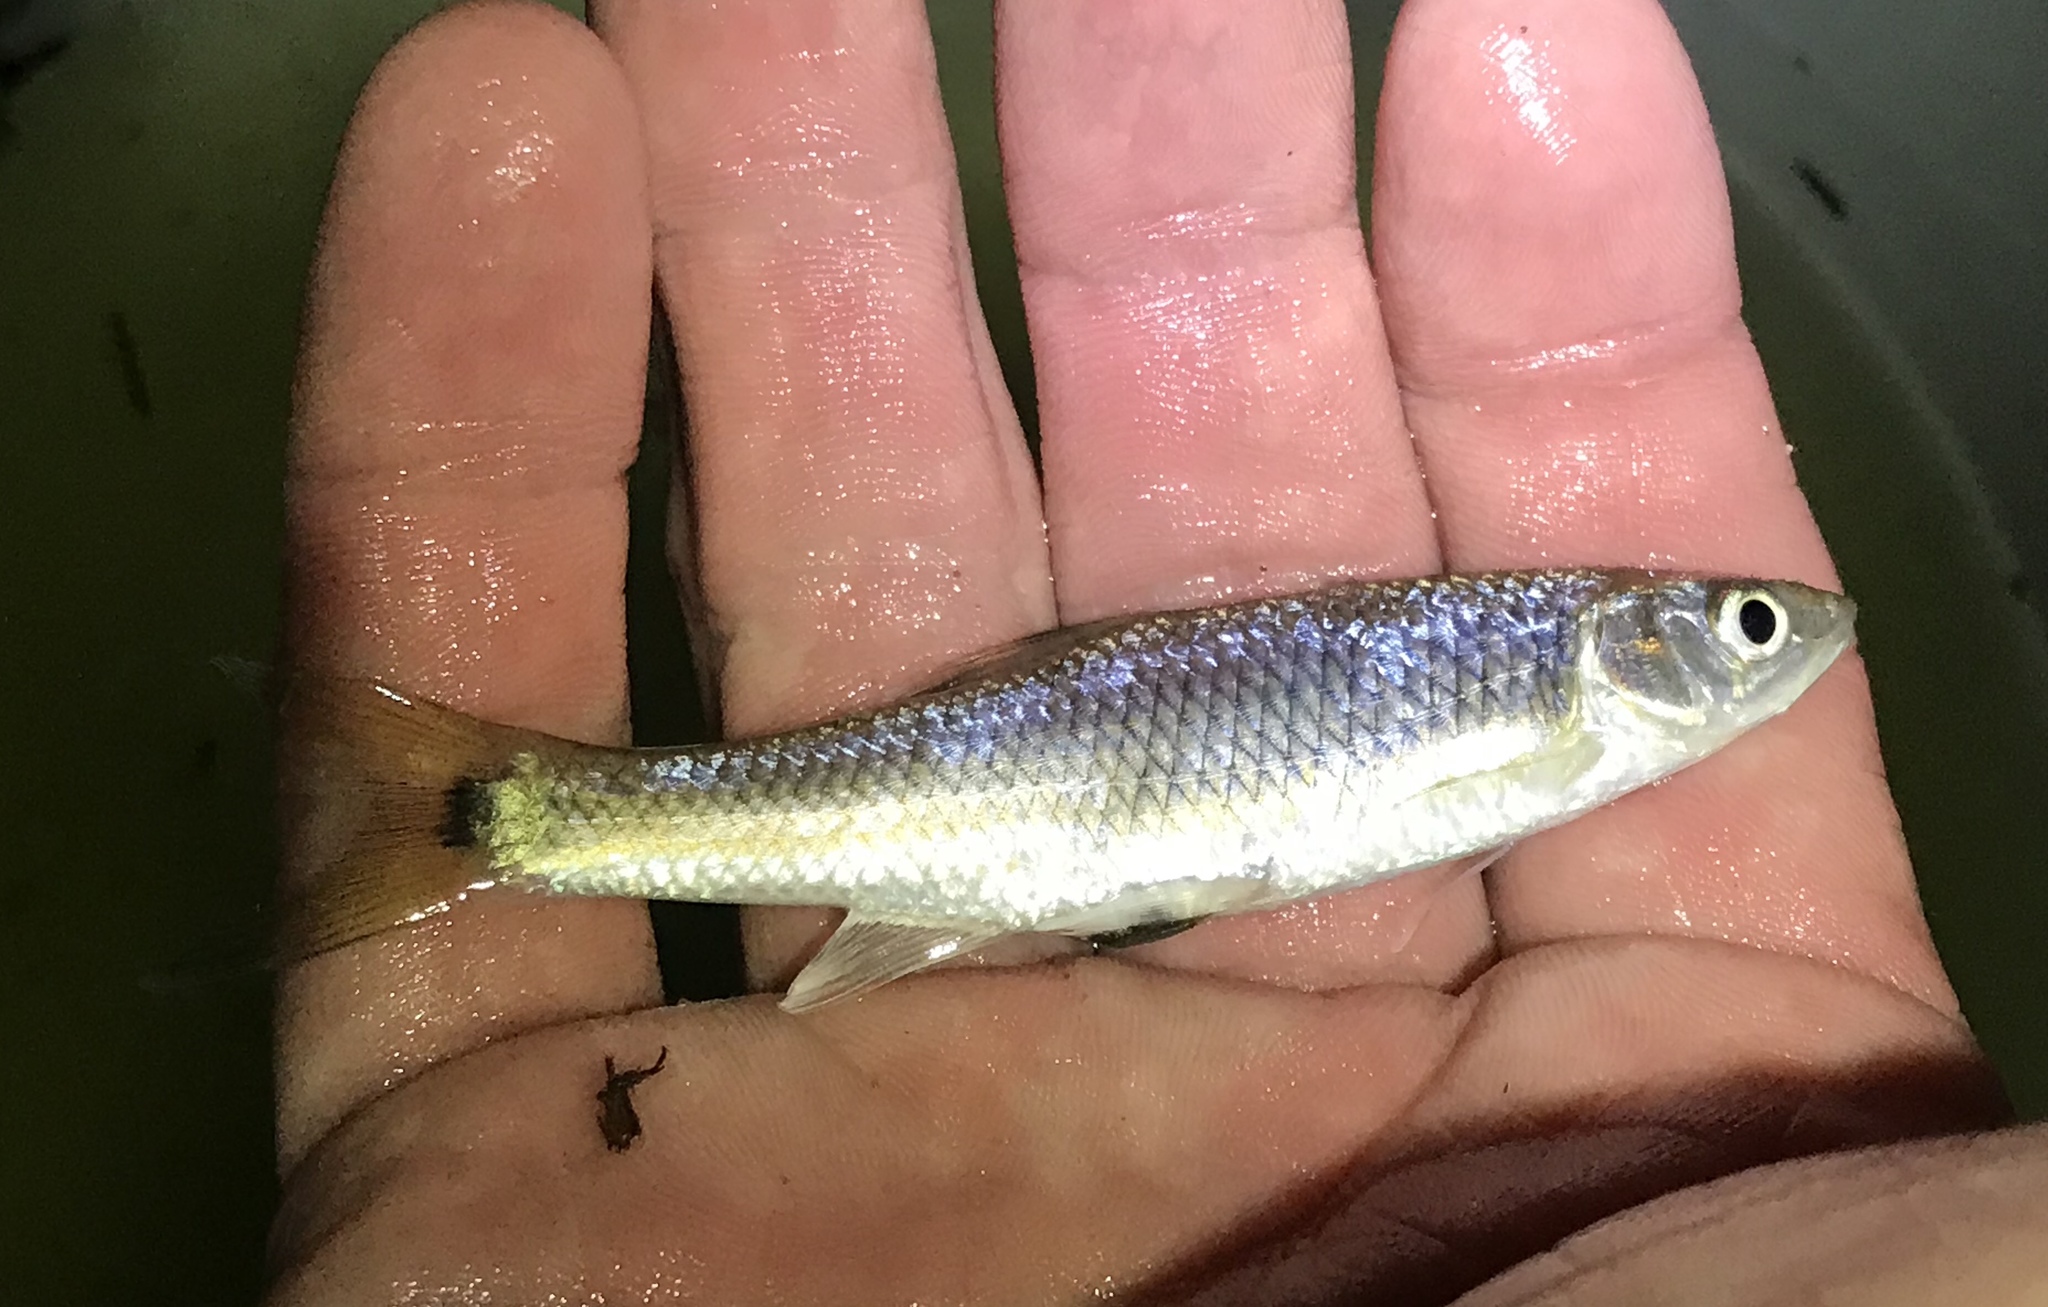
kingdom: Animalia
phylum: Chordata
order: Cypriniformes
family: Cyprinidae
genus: Cyprinella
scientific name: Cyprinella venusta
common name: Blacktail shiner
